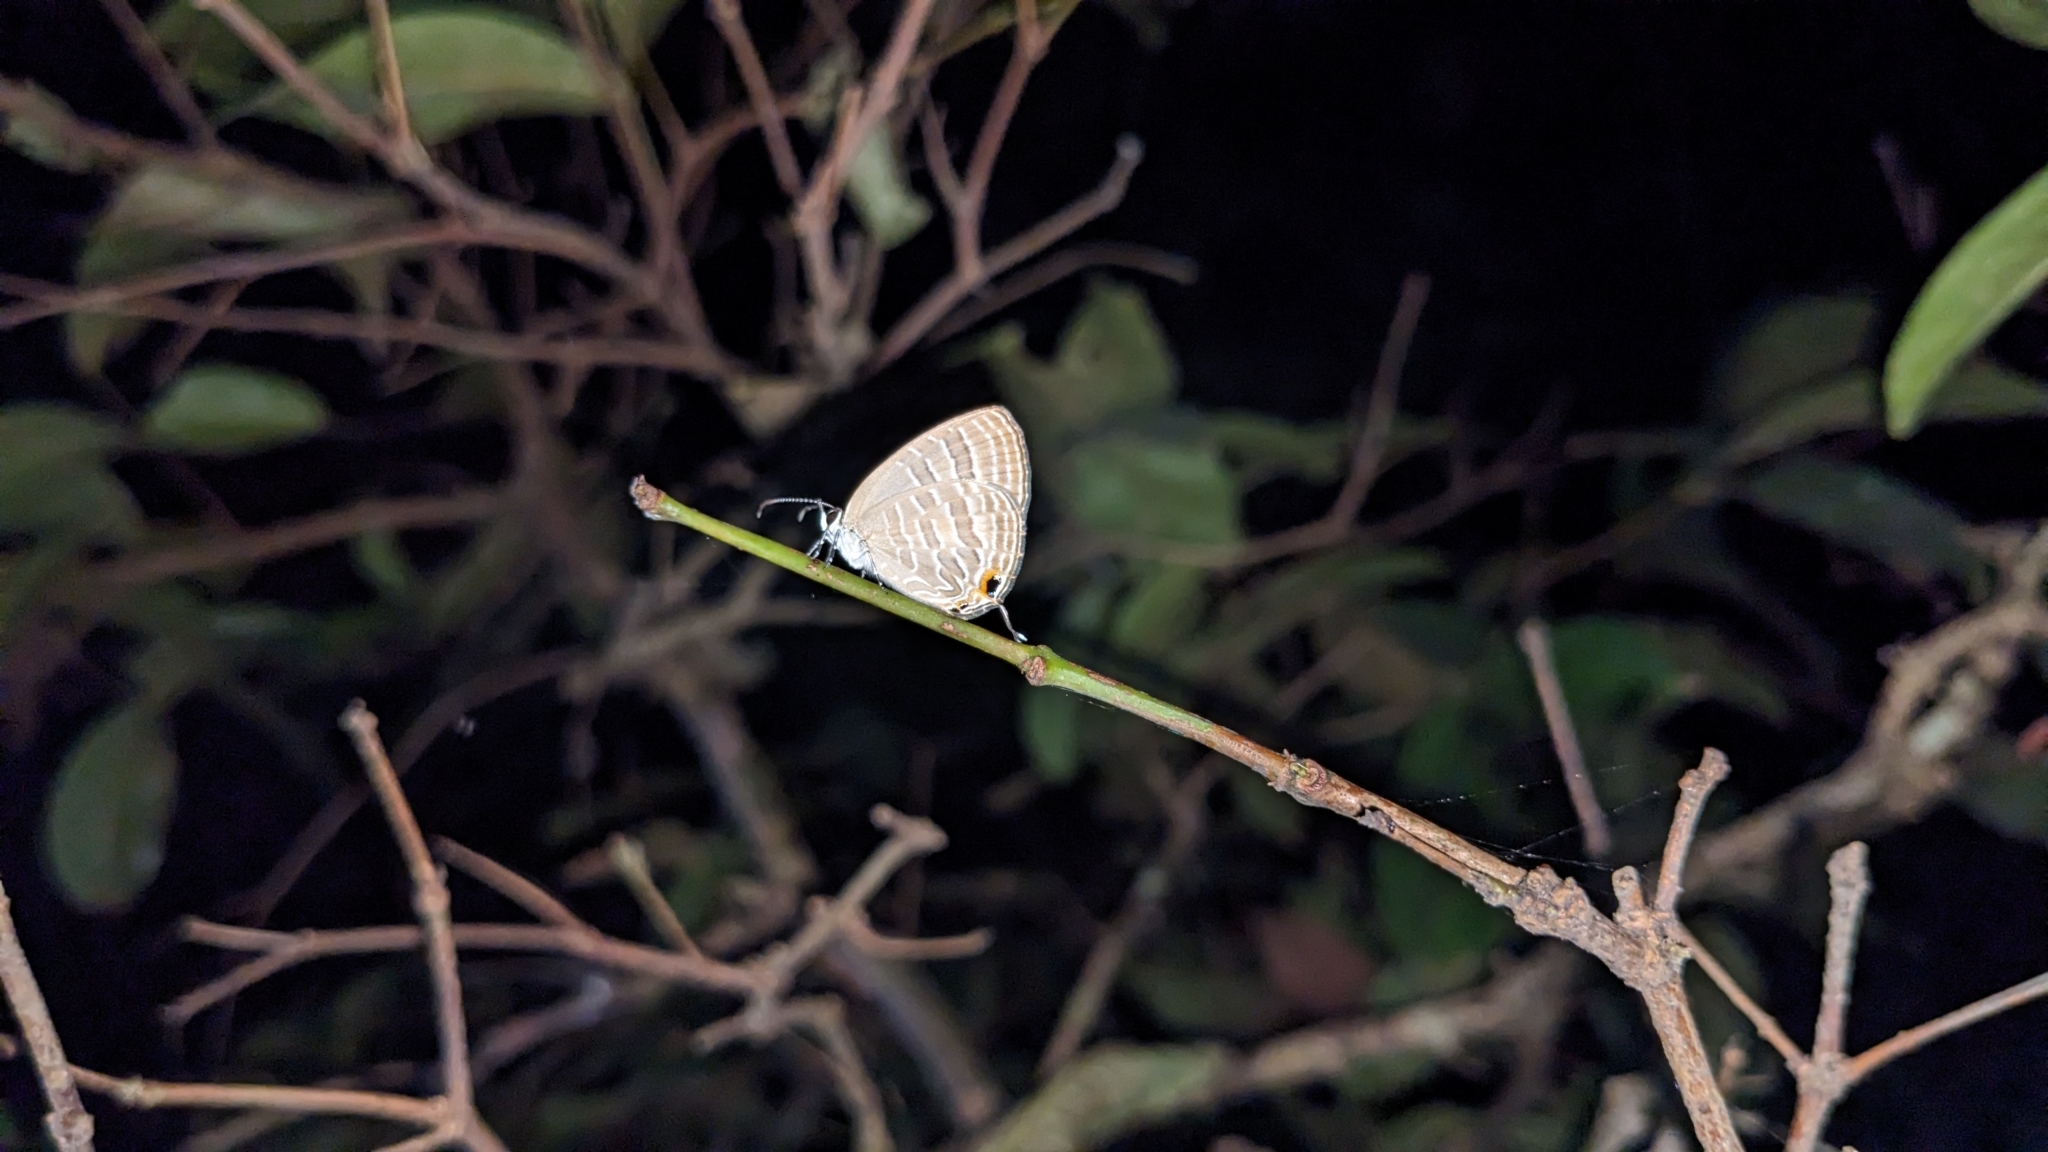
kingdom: Animalia
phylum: Arthropoda
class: Insecta
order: Lepidoptera
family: Lycaenidae
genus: Jamides
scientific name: Jamides celeno
